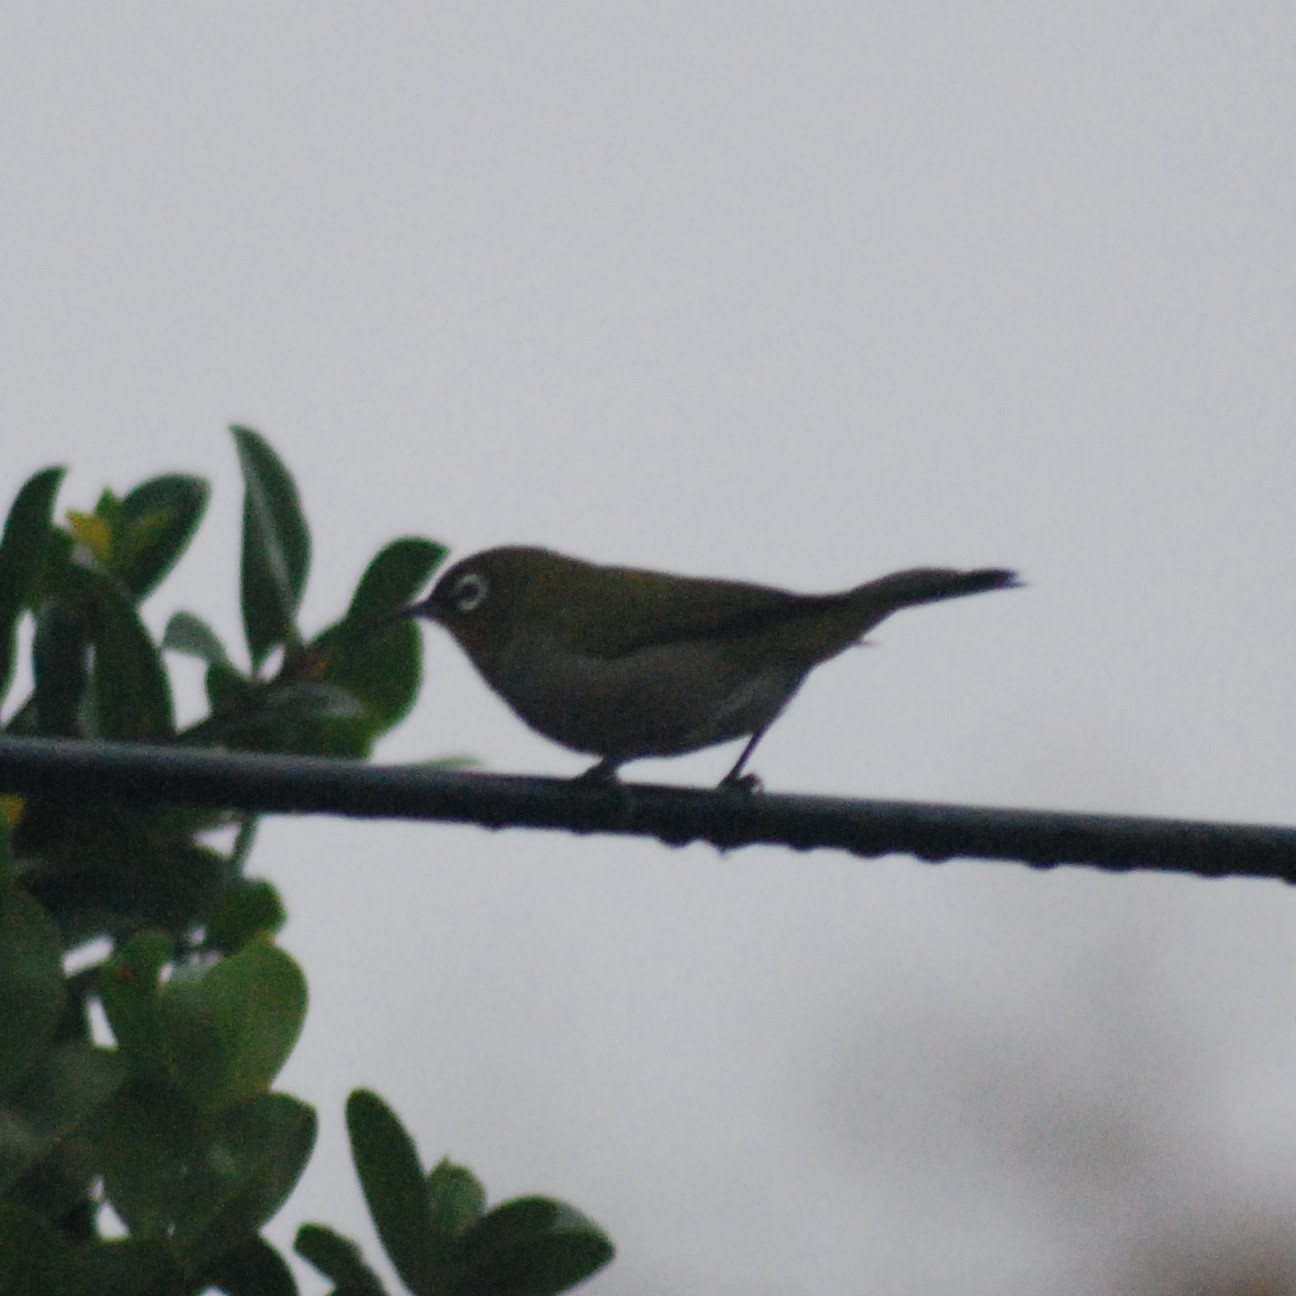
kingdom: Animalia
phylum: Chordata
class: Aves
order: Passeriformes
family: Zosteropidae
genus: Zosterops
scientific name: Zosterops virens
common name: Cape white-eye
